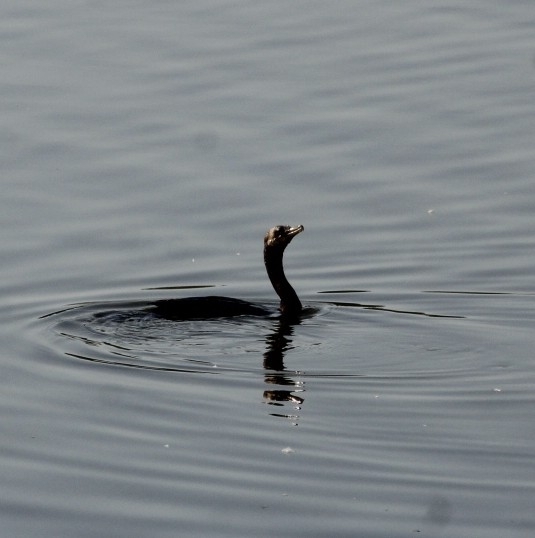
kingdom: Animalia
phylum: Chordata
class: Aves
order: Suliformes
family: Phalacrocoracidae
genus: Phalacrocorax
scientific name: Phalacrocorax auritus
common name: Double-crested cormorant
